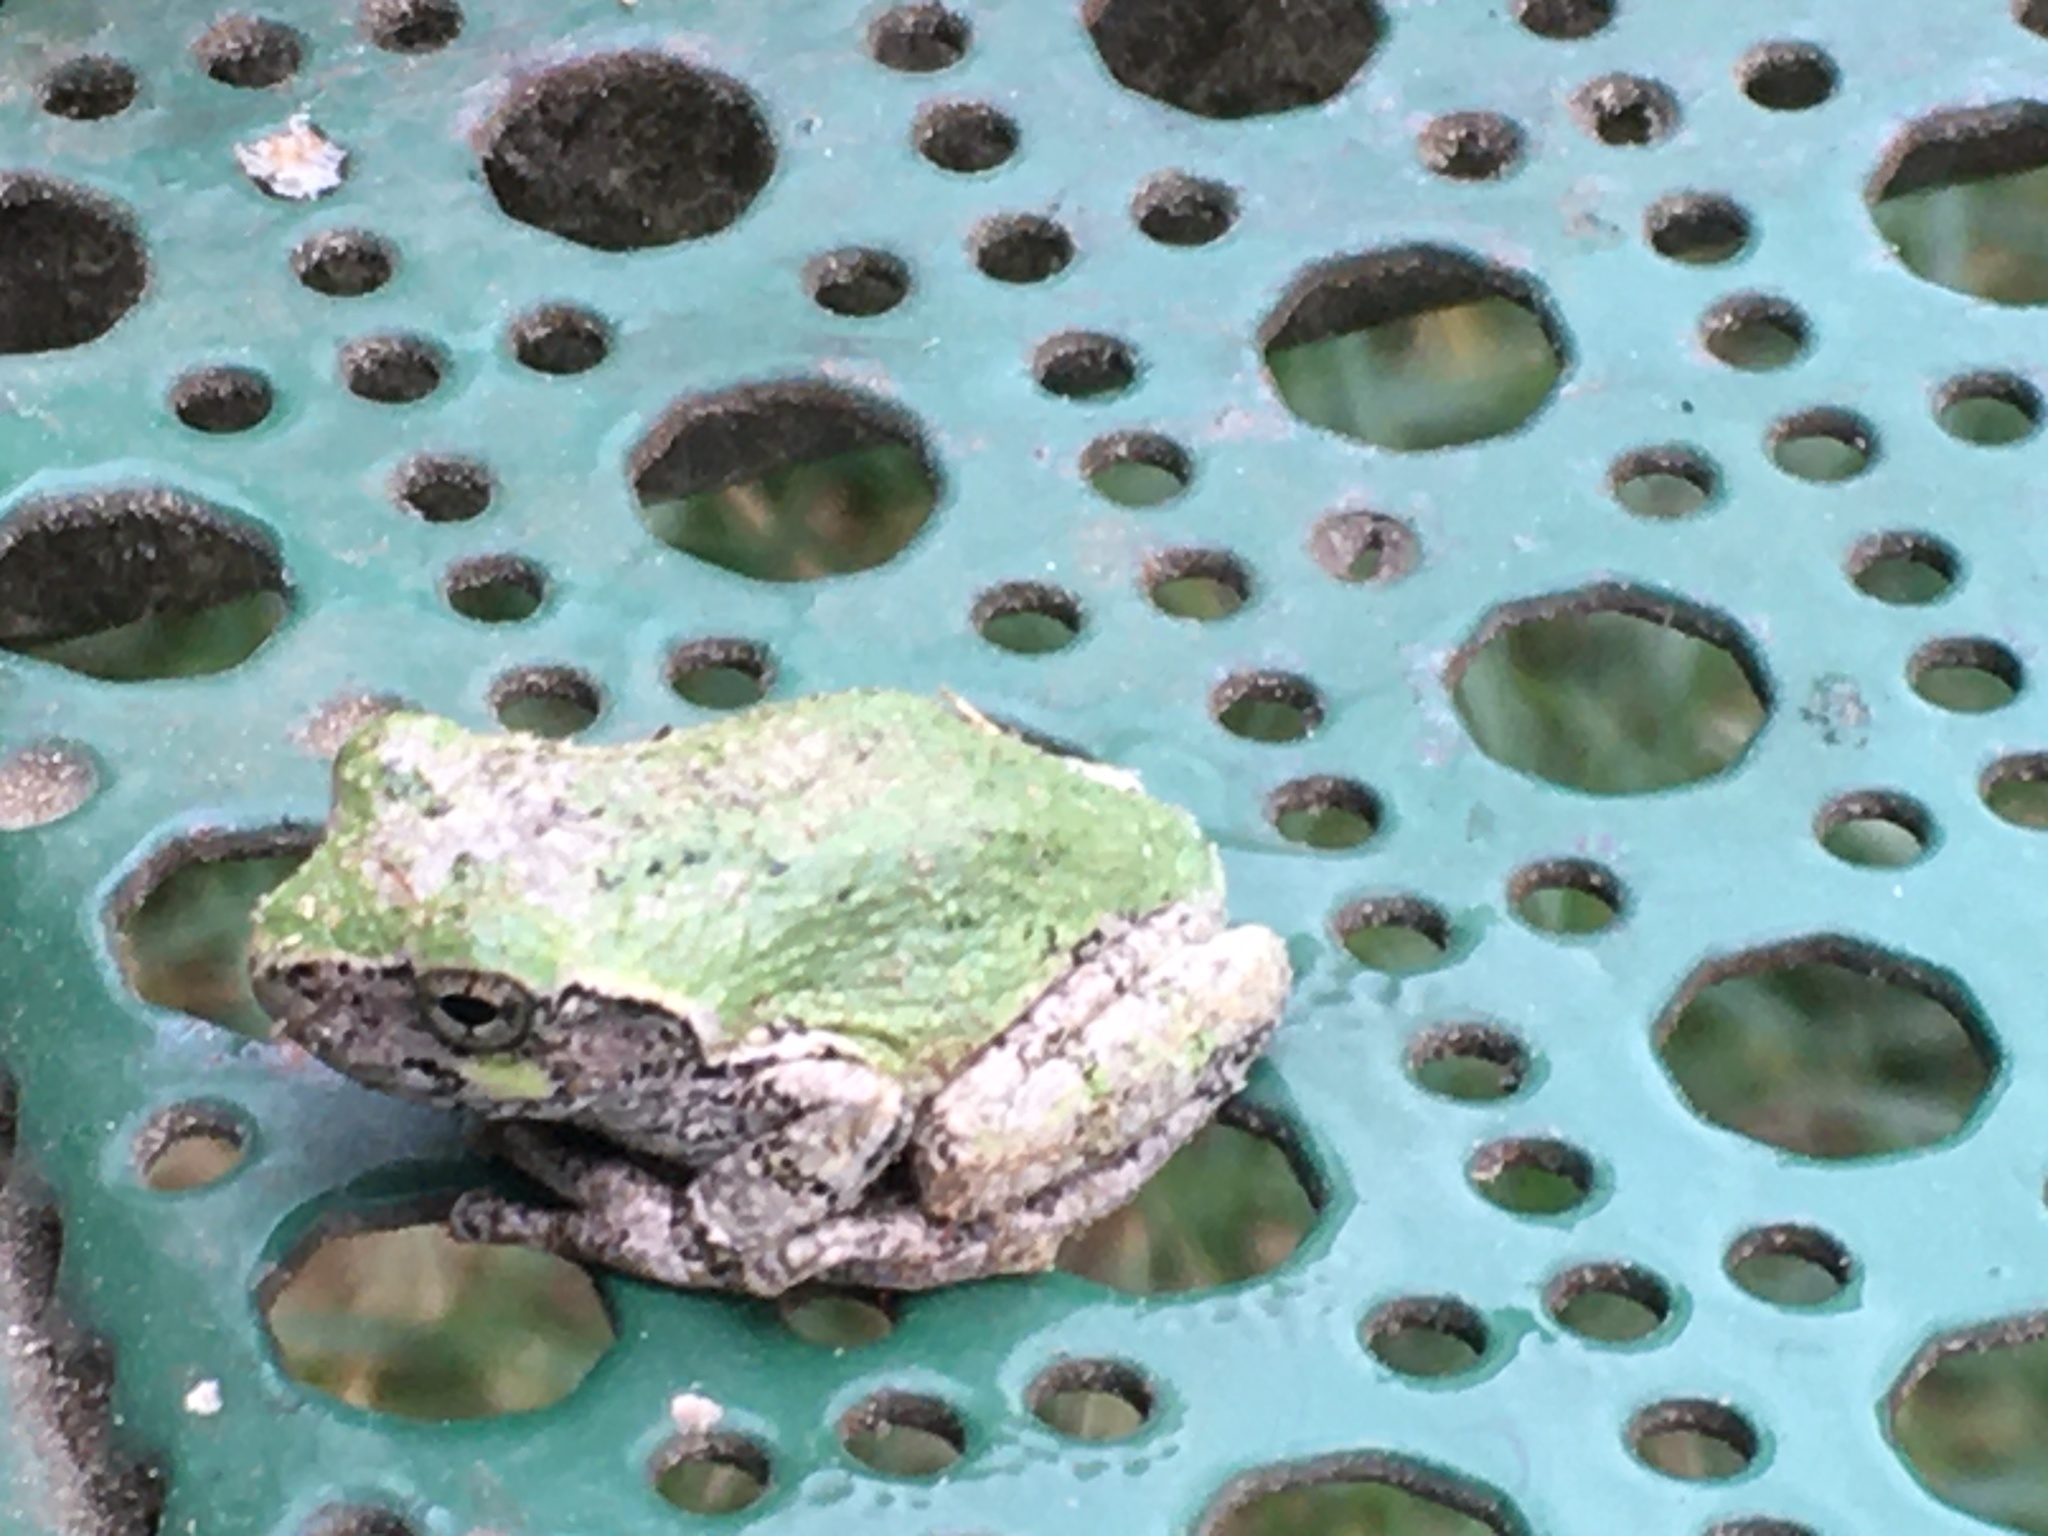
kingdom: Animalia
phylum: Chordata
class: Amphibia
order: Anura
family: Hylidae
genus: Dryophytes
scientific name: Dryophytes versicolor
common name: Gray treefrog
